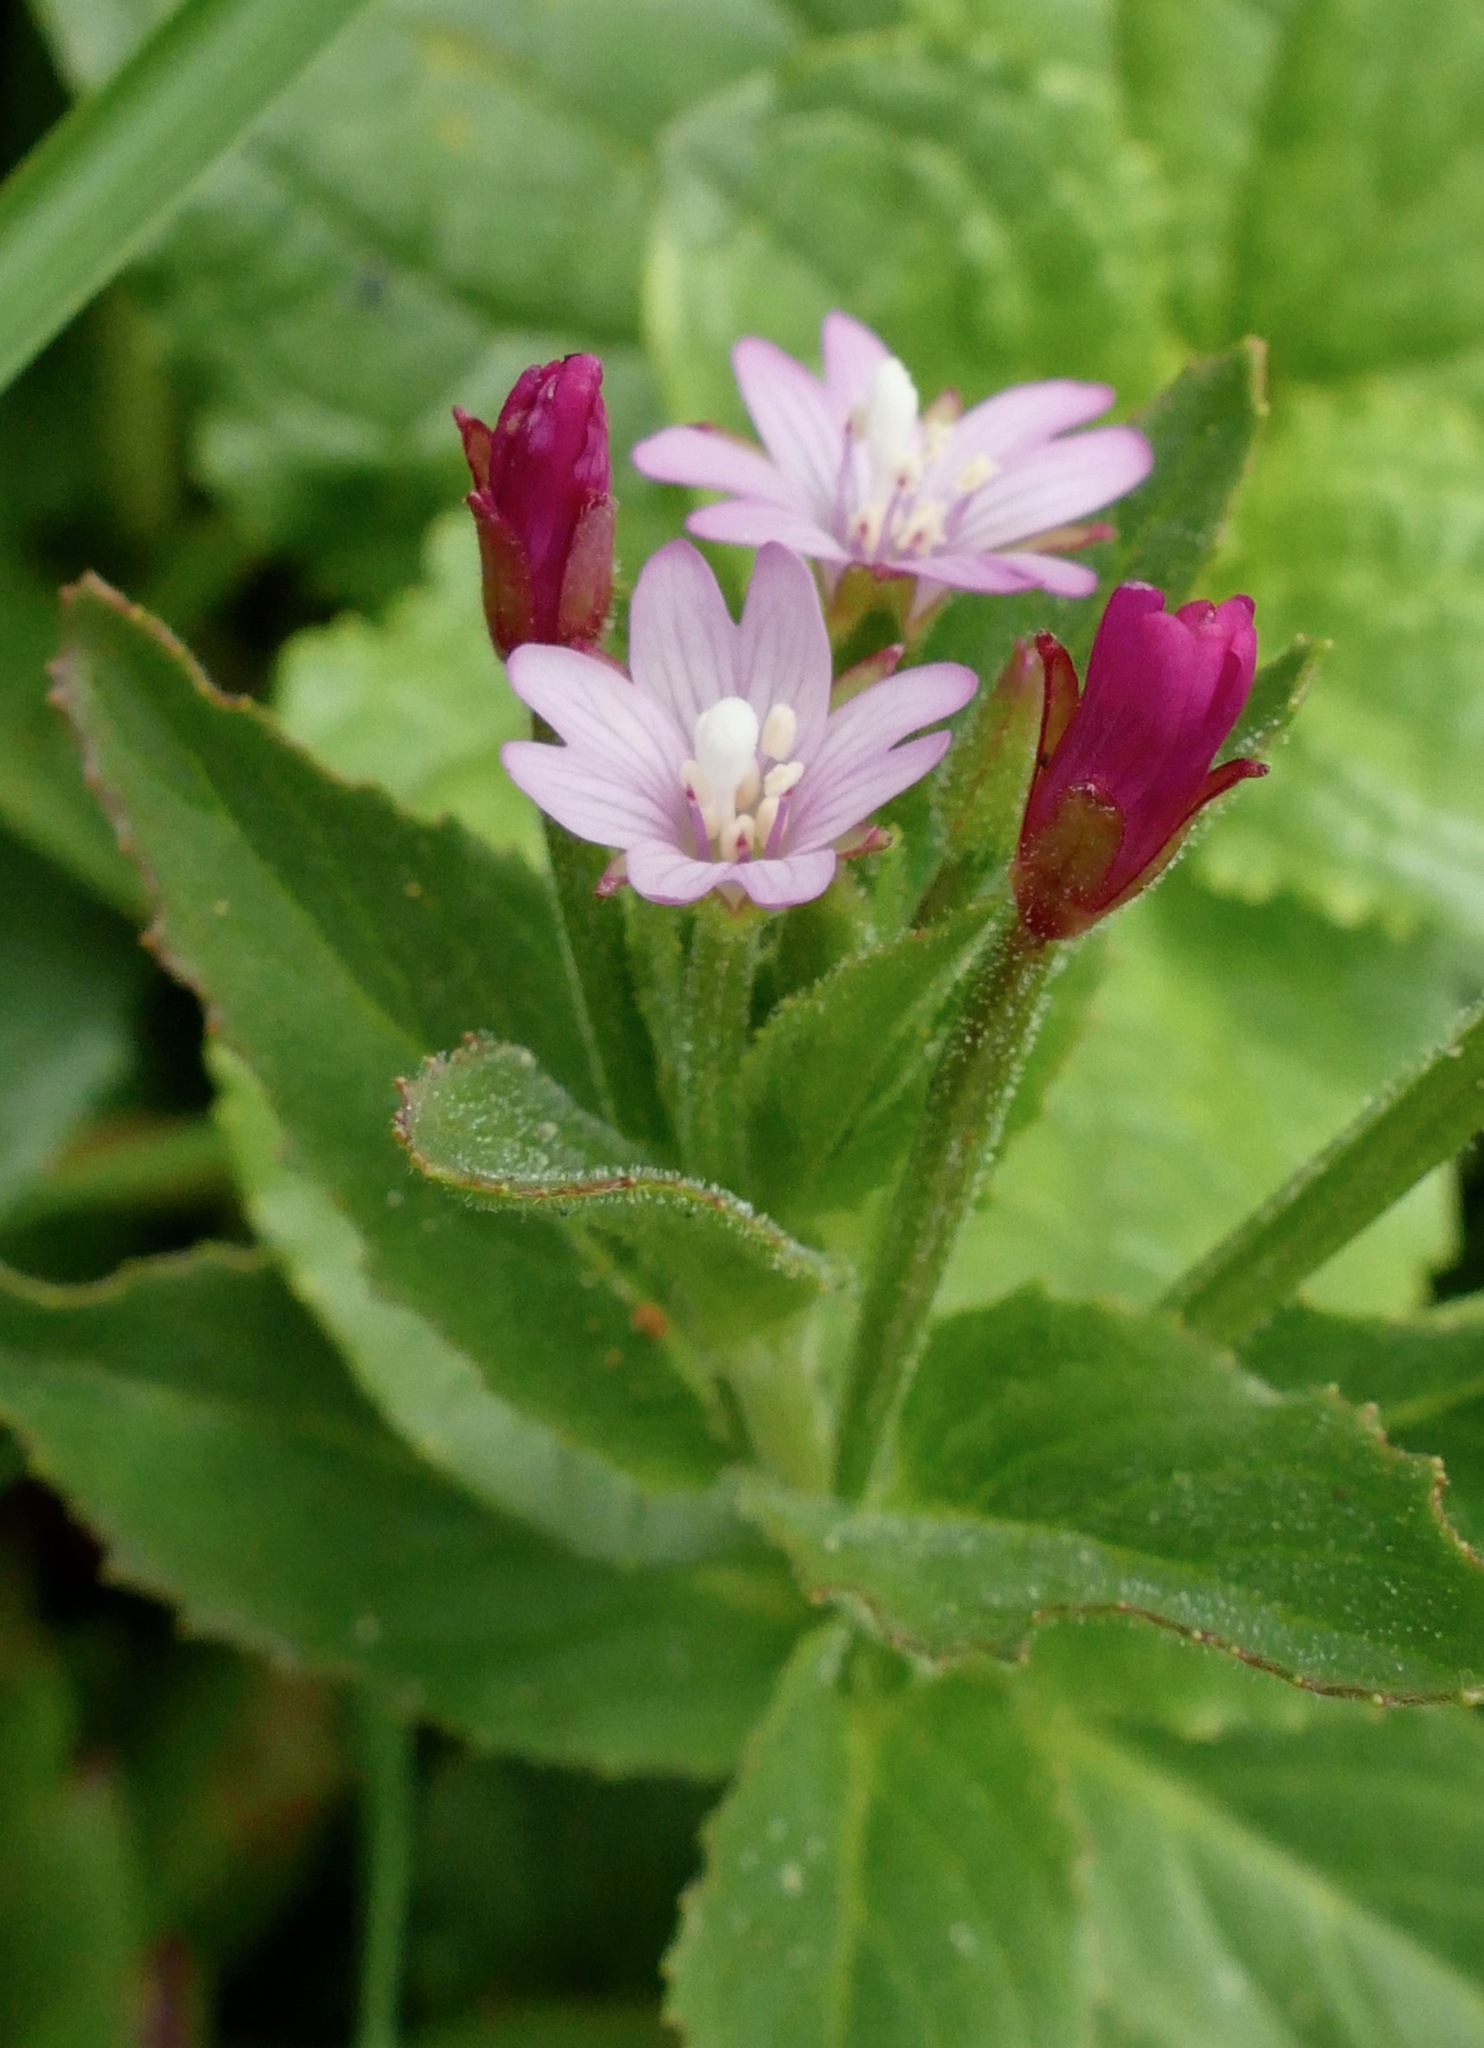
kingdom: Plantae
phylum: Tracheophyta
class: Magnoliopsida
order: Myrtales
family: Onagraceae
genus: Epilobium
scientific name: Epilobium ciliatum
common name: American willowherb
